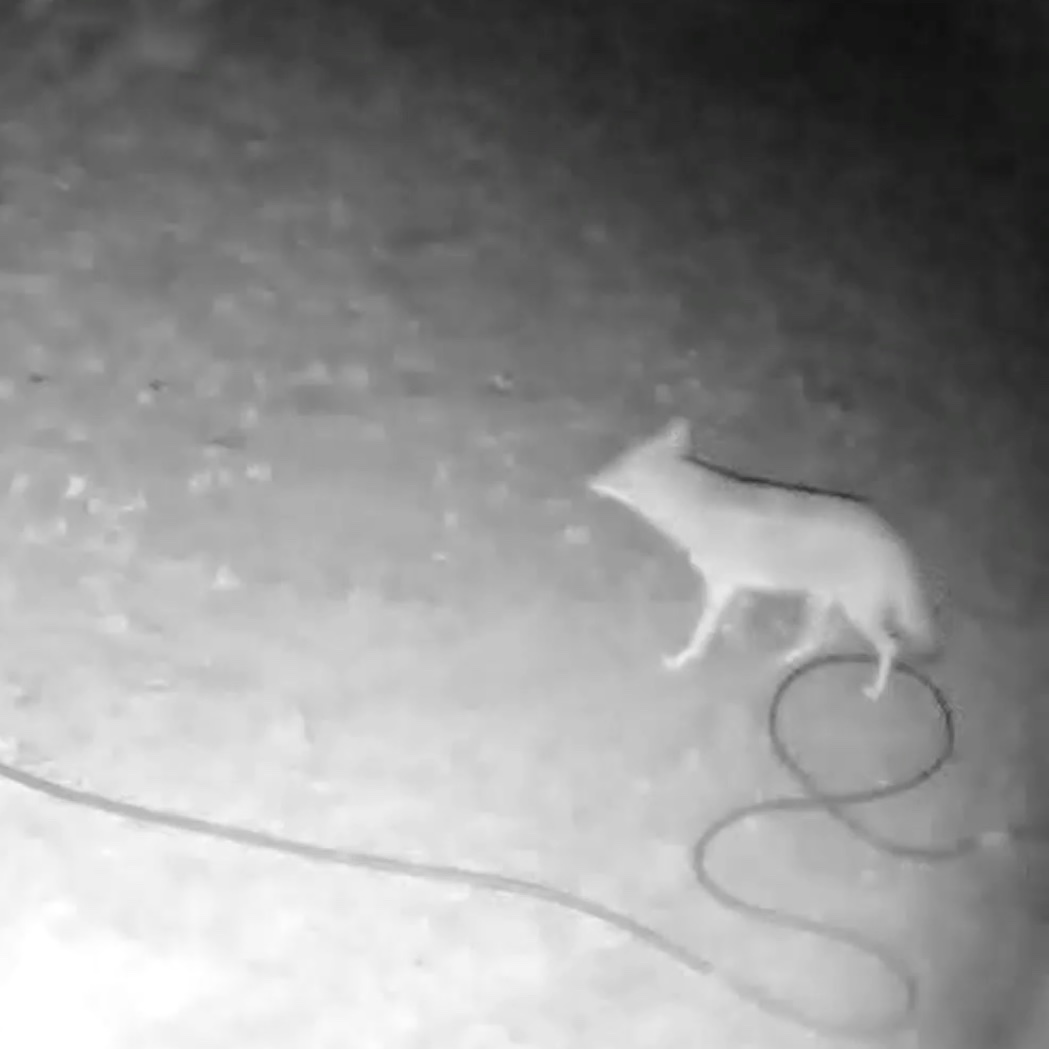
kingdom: Animalia
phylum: Chordata
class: Mammalia
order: Carnivora
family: Canidae
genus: Canis
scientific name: Canis latrans
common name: Coyote
